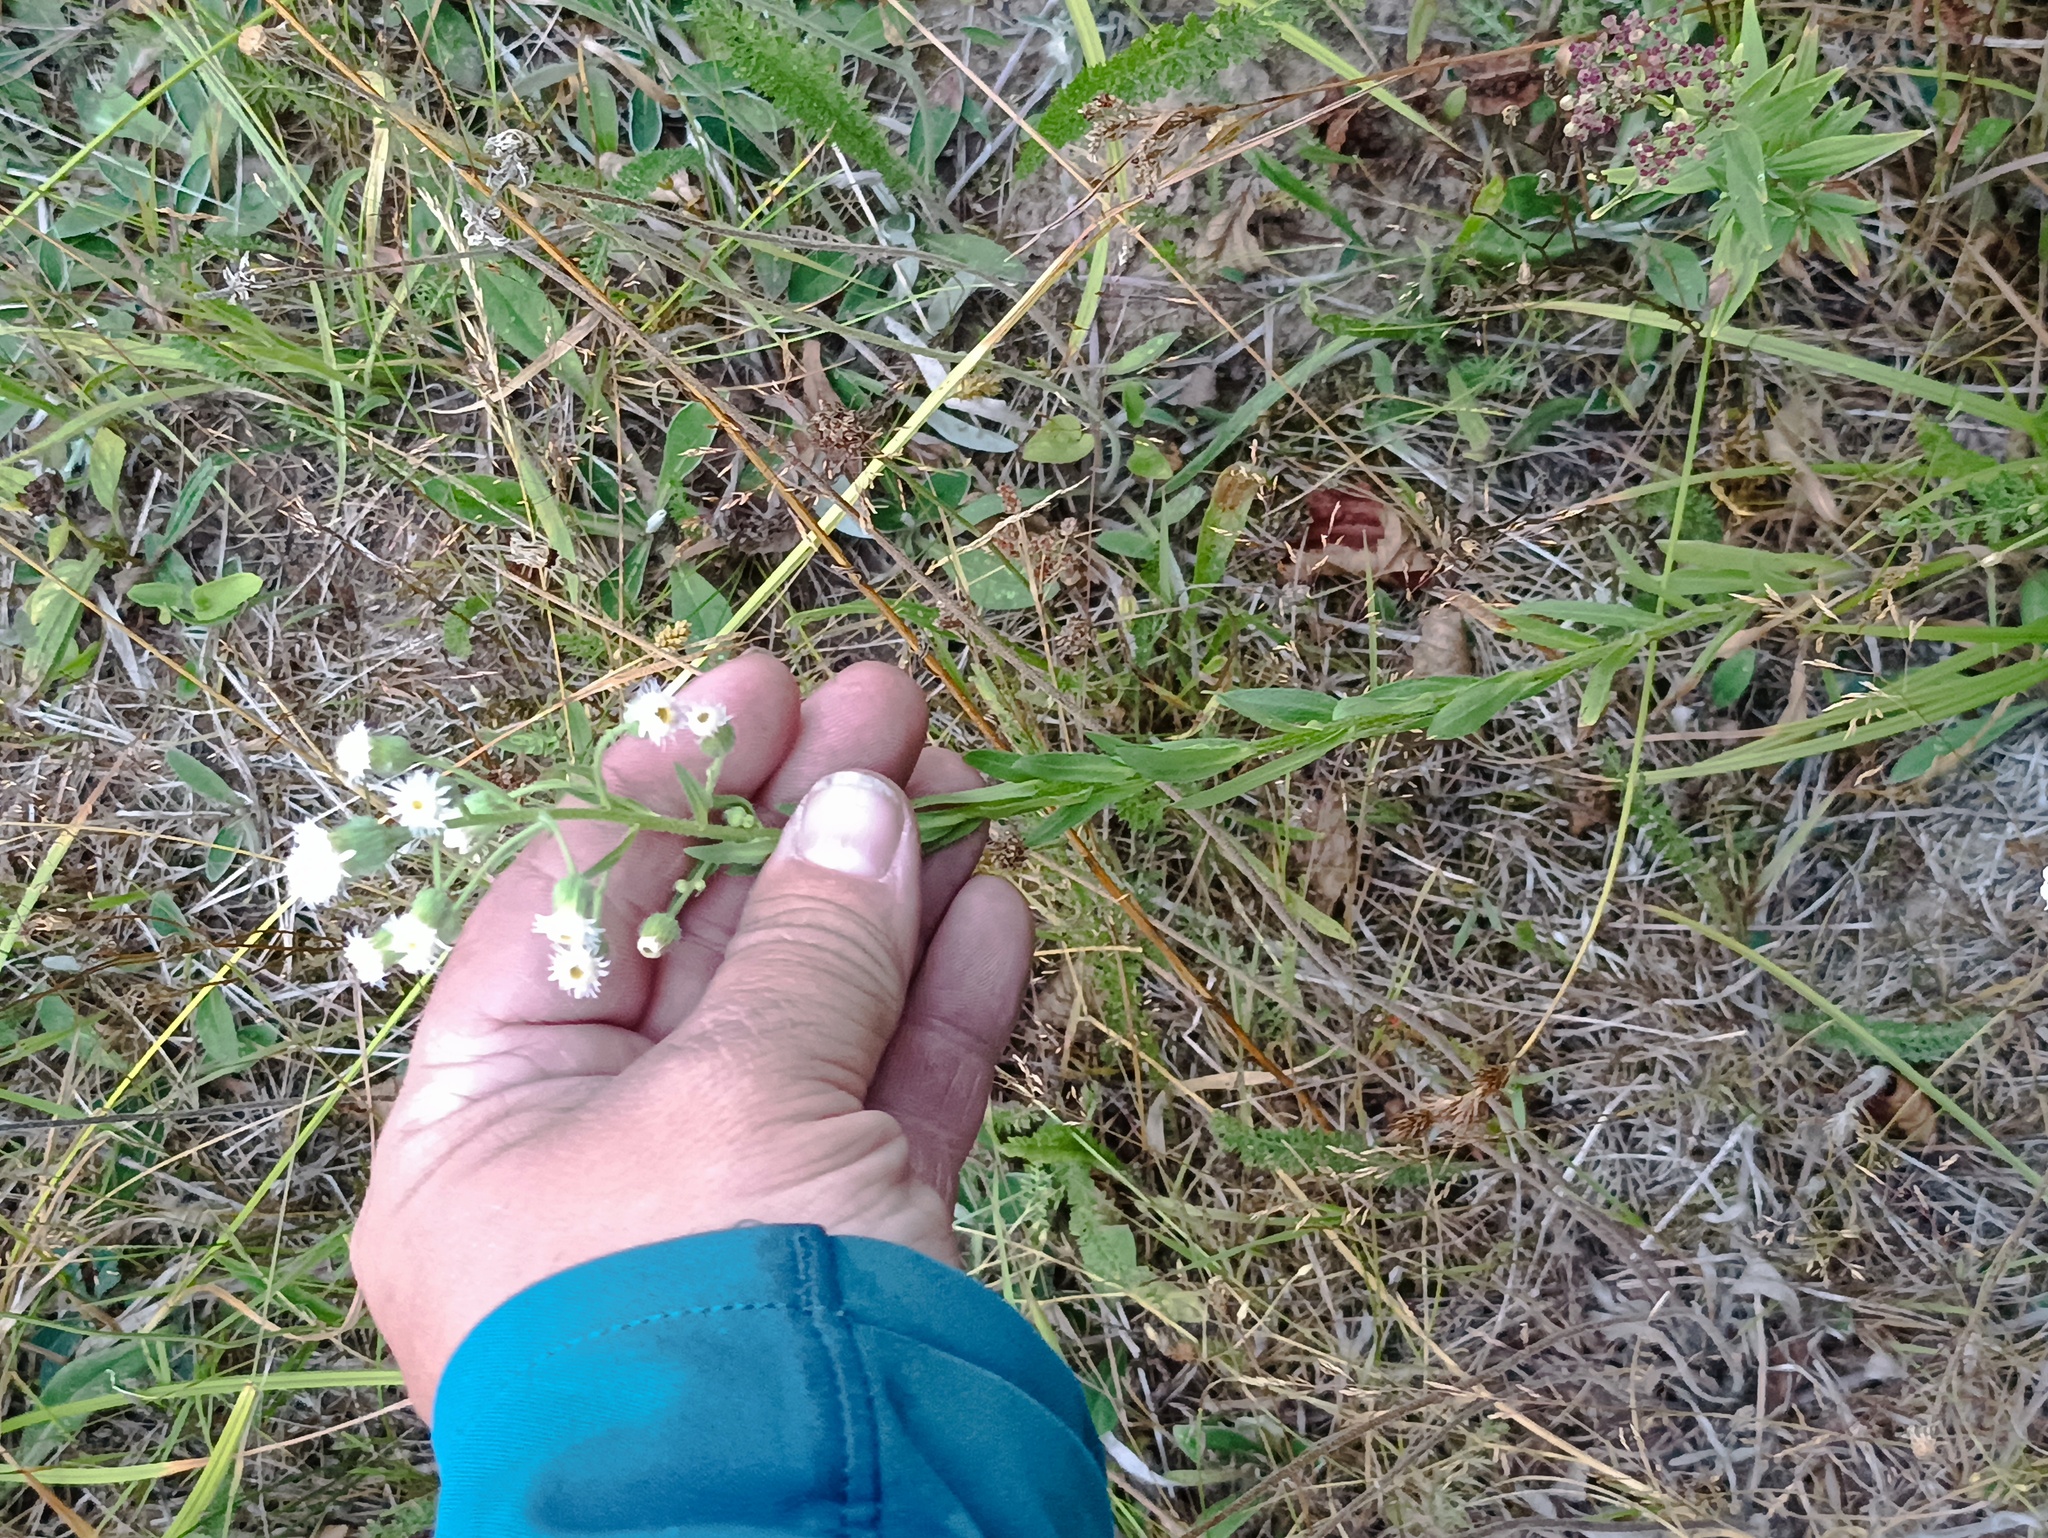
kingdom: Plantae
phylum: Tracheophyta
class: Magnoliopsida
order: Asterales
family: Asteraceae
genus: Erigeron
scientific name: Erigeron acris
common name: Blue fleabane
